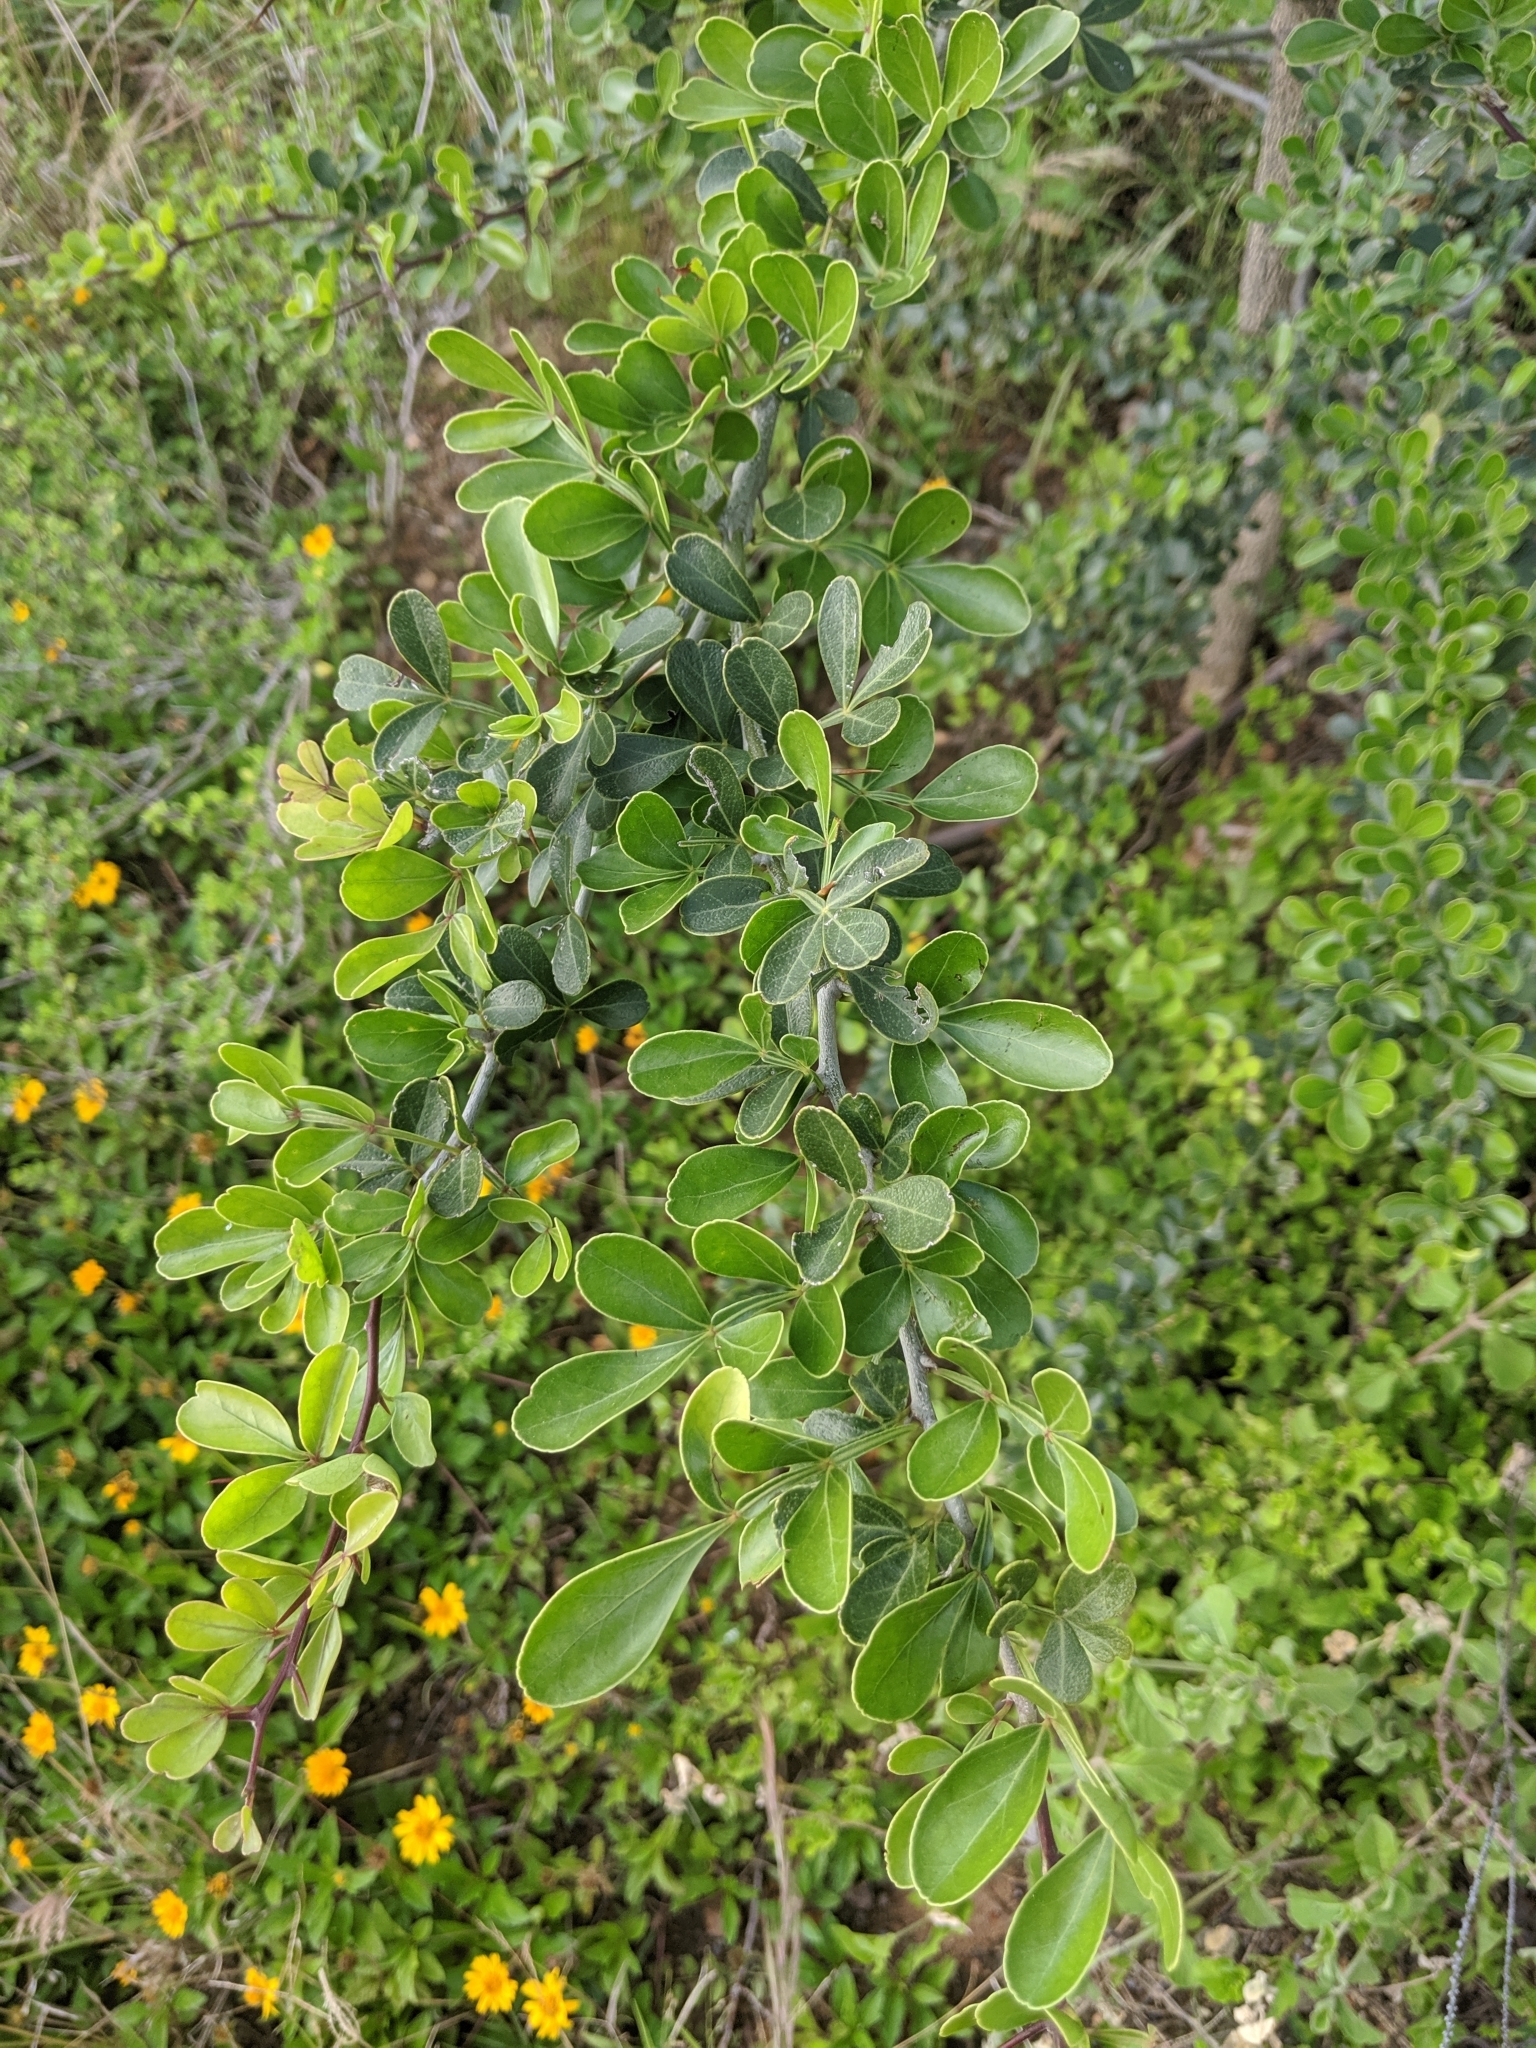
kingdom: Plantae
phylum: Tracheophyta
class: Magnoliopsida
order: Sapindales
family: Rutaceae
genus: Limonia
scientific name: Limonia acidissima
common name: Elephant apple
